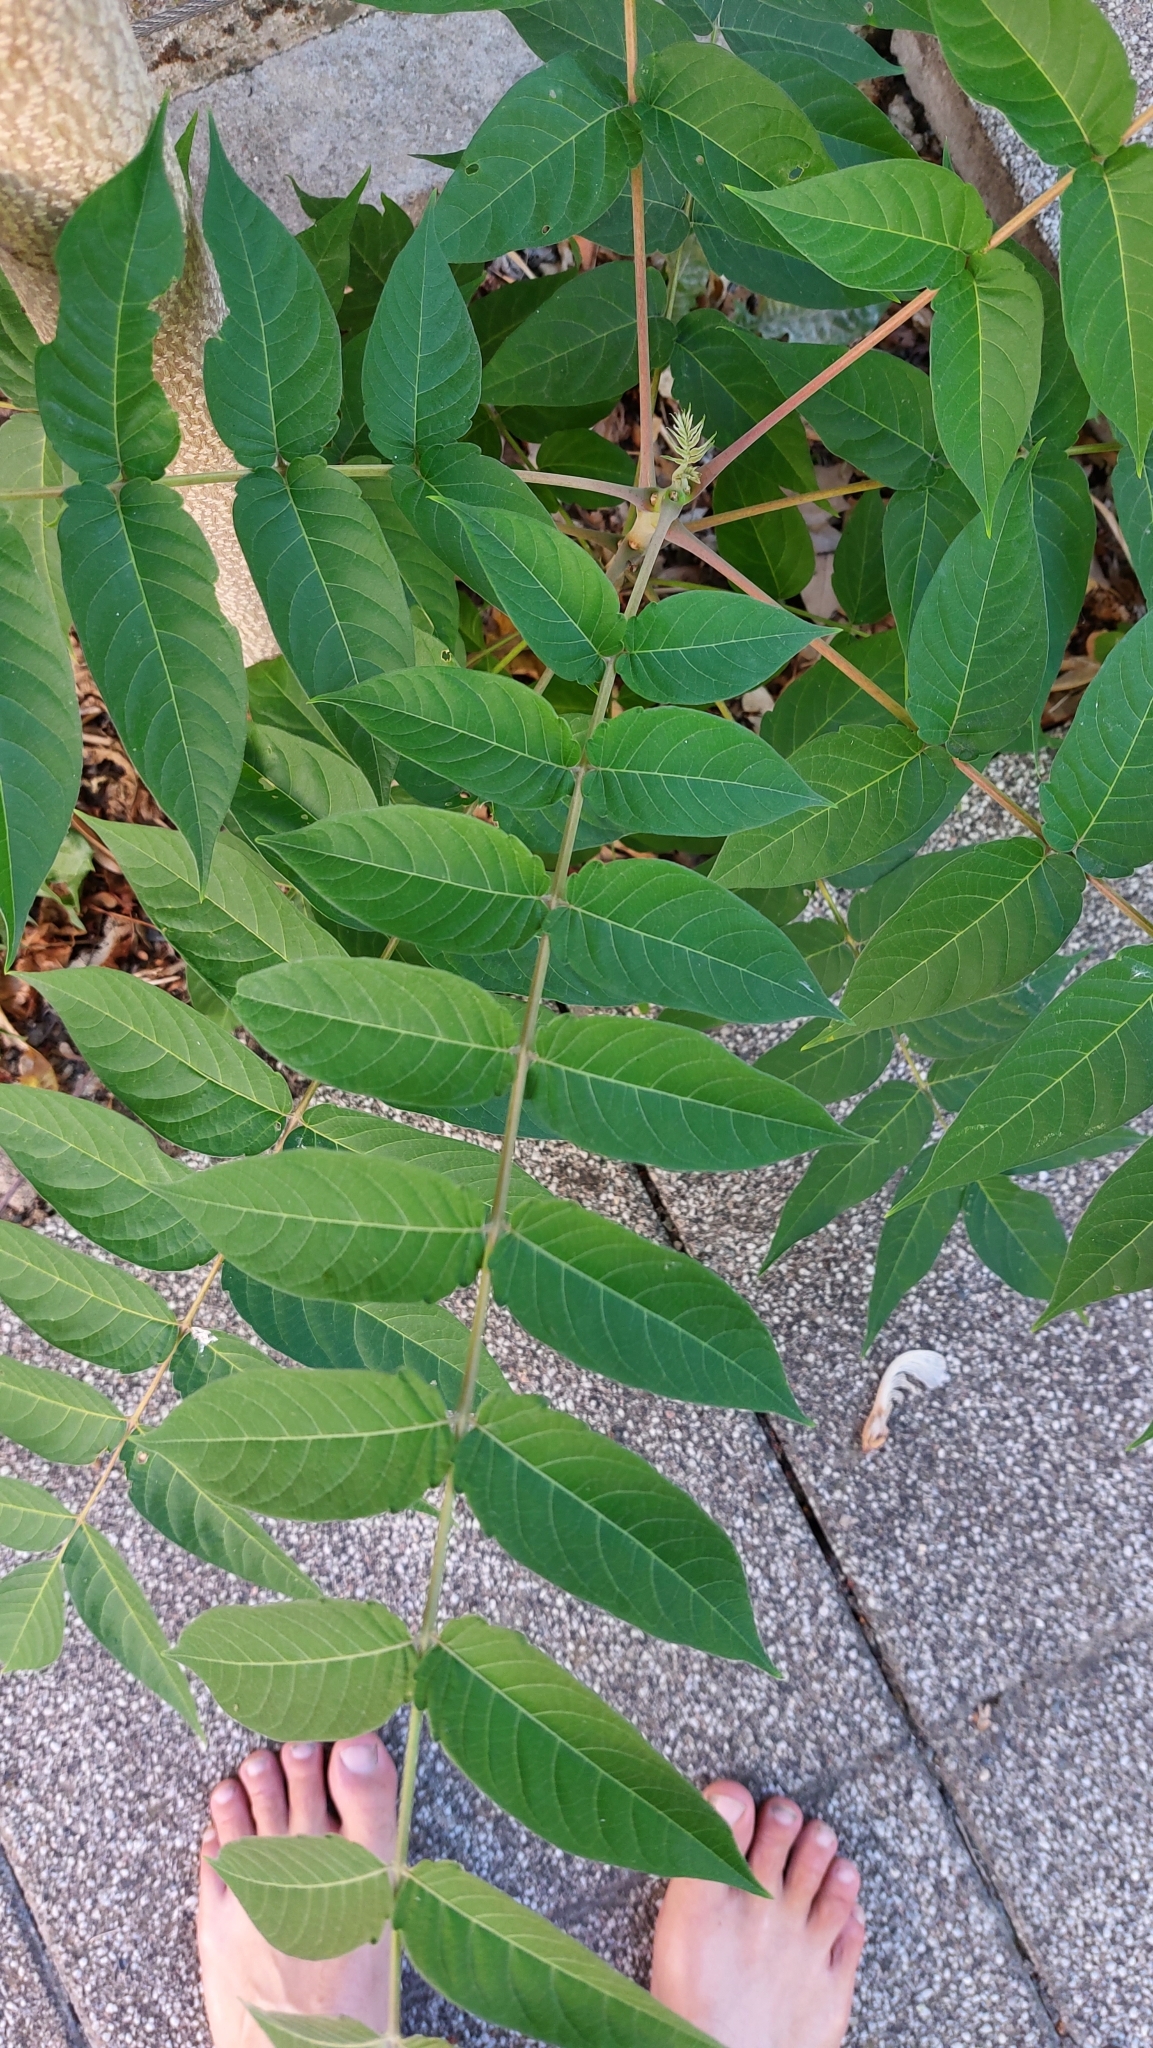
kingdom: Plantae
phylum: Tracheophyta
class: Magnoliopsida
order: Sapindales
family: Simaroubaceae
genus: Ailanthus
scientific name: Ailanthus altissima
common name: Tree-of-heaven
